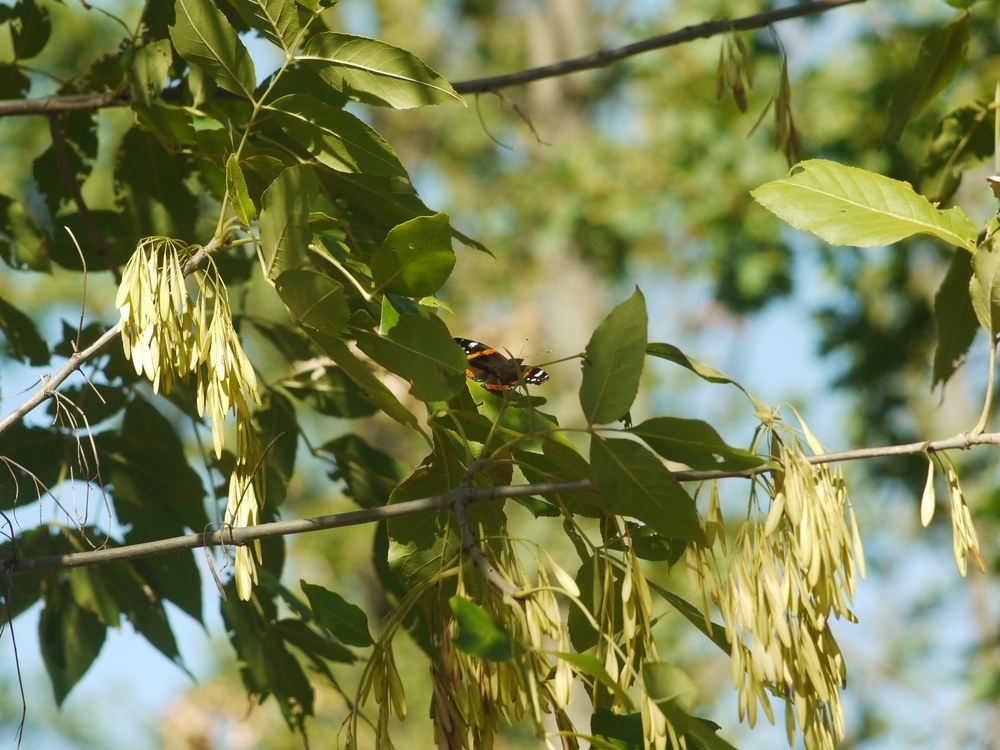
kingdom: Animalia
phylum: Arthropoda
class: Insecta
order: Lepidoptera
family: Nymphalidae
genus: Vanessa
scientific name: Vanessa atalanta
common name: Red admiral
